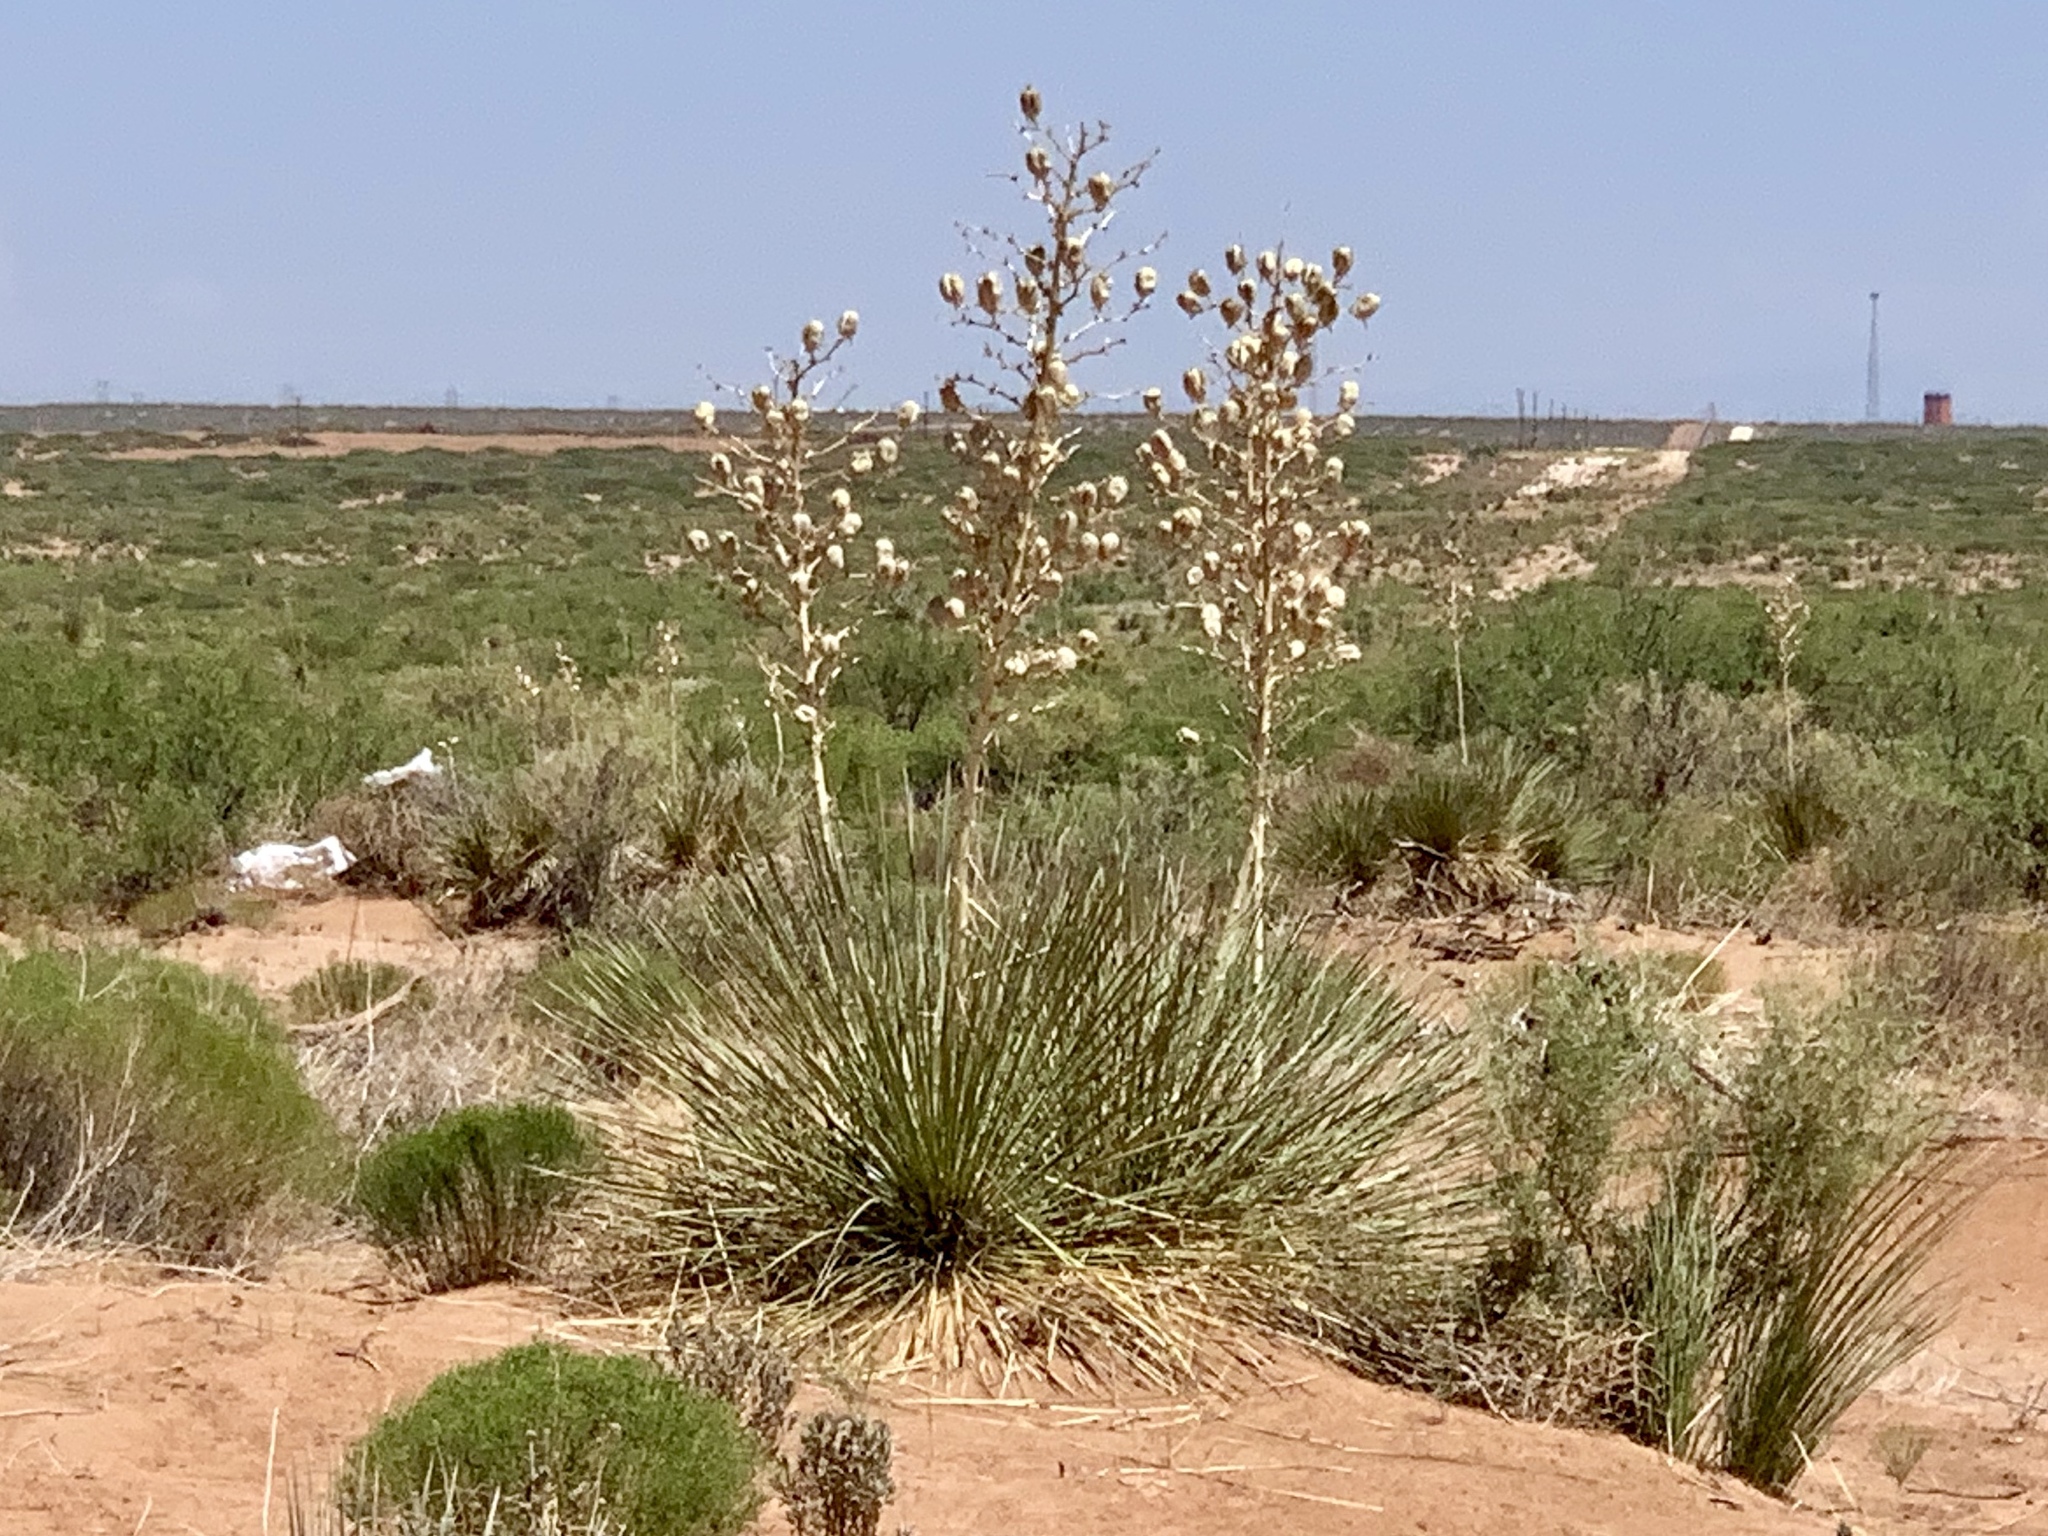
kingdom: Plantae
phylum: Tracheophyta
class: Liliopsida
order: Asparagales
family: Asparagaceae
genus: Yucca
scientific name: Yucca elata
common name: Palmella
